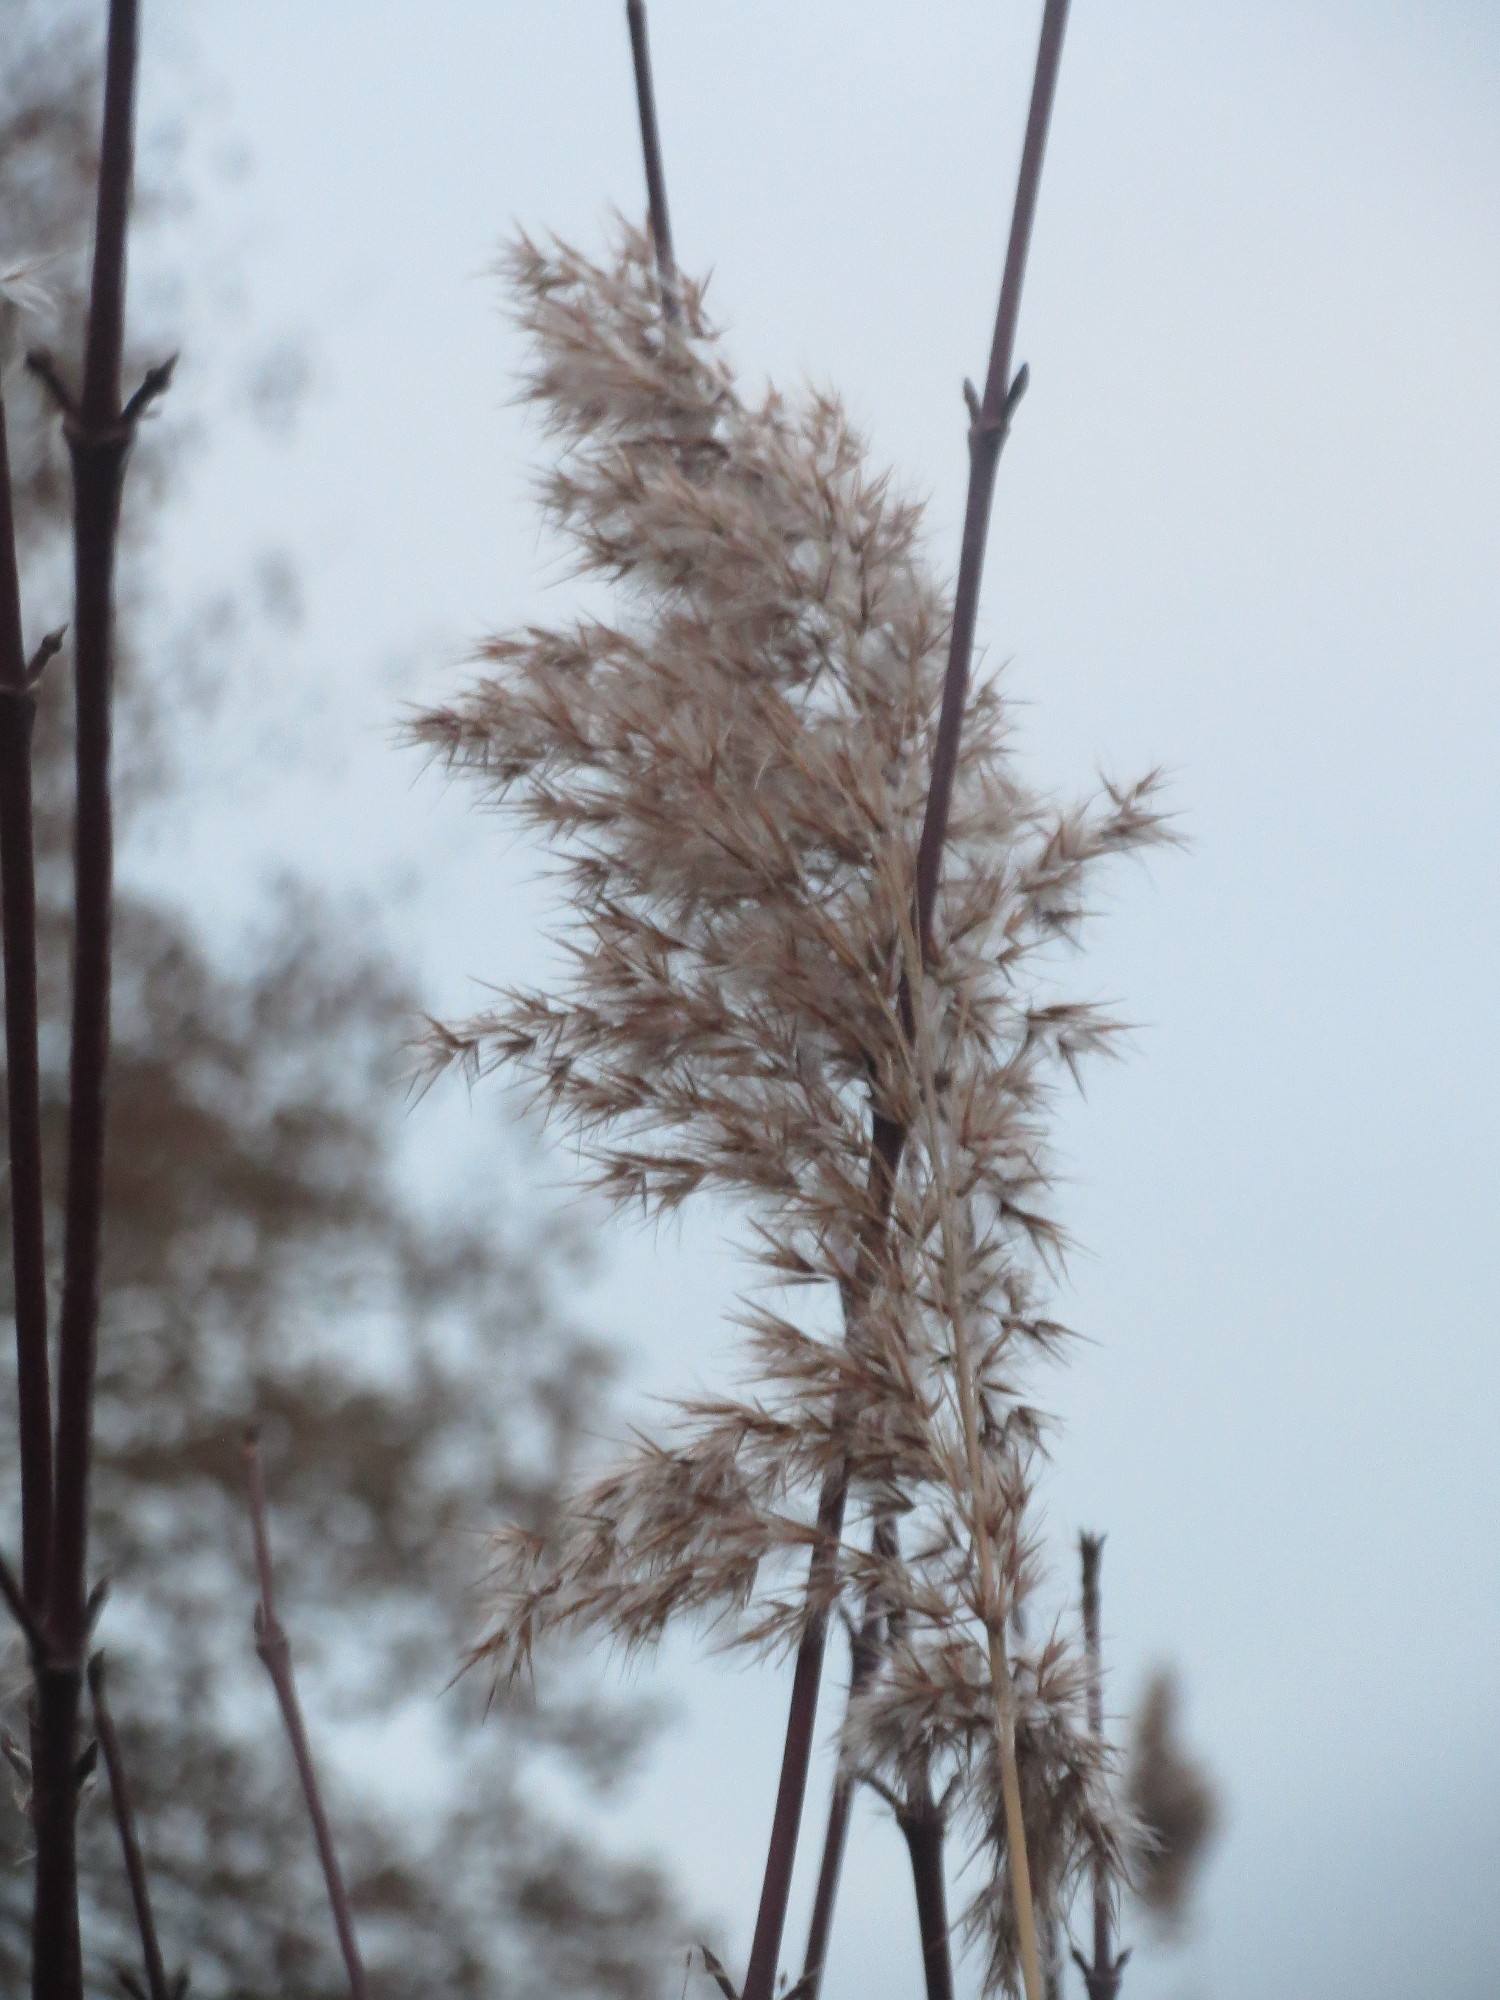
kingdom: Plantae
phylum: Tracheophyta
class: Liliopsida
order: Poales
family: Poaceae
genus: Phragmites
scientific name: Phragmites australis
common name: Common reed
